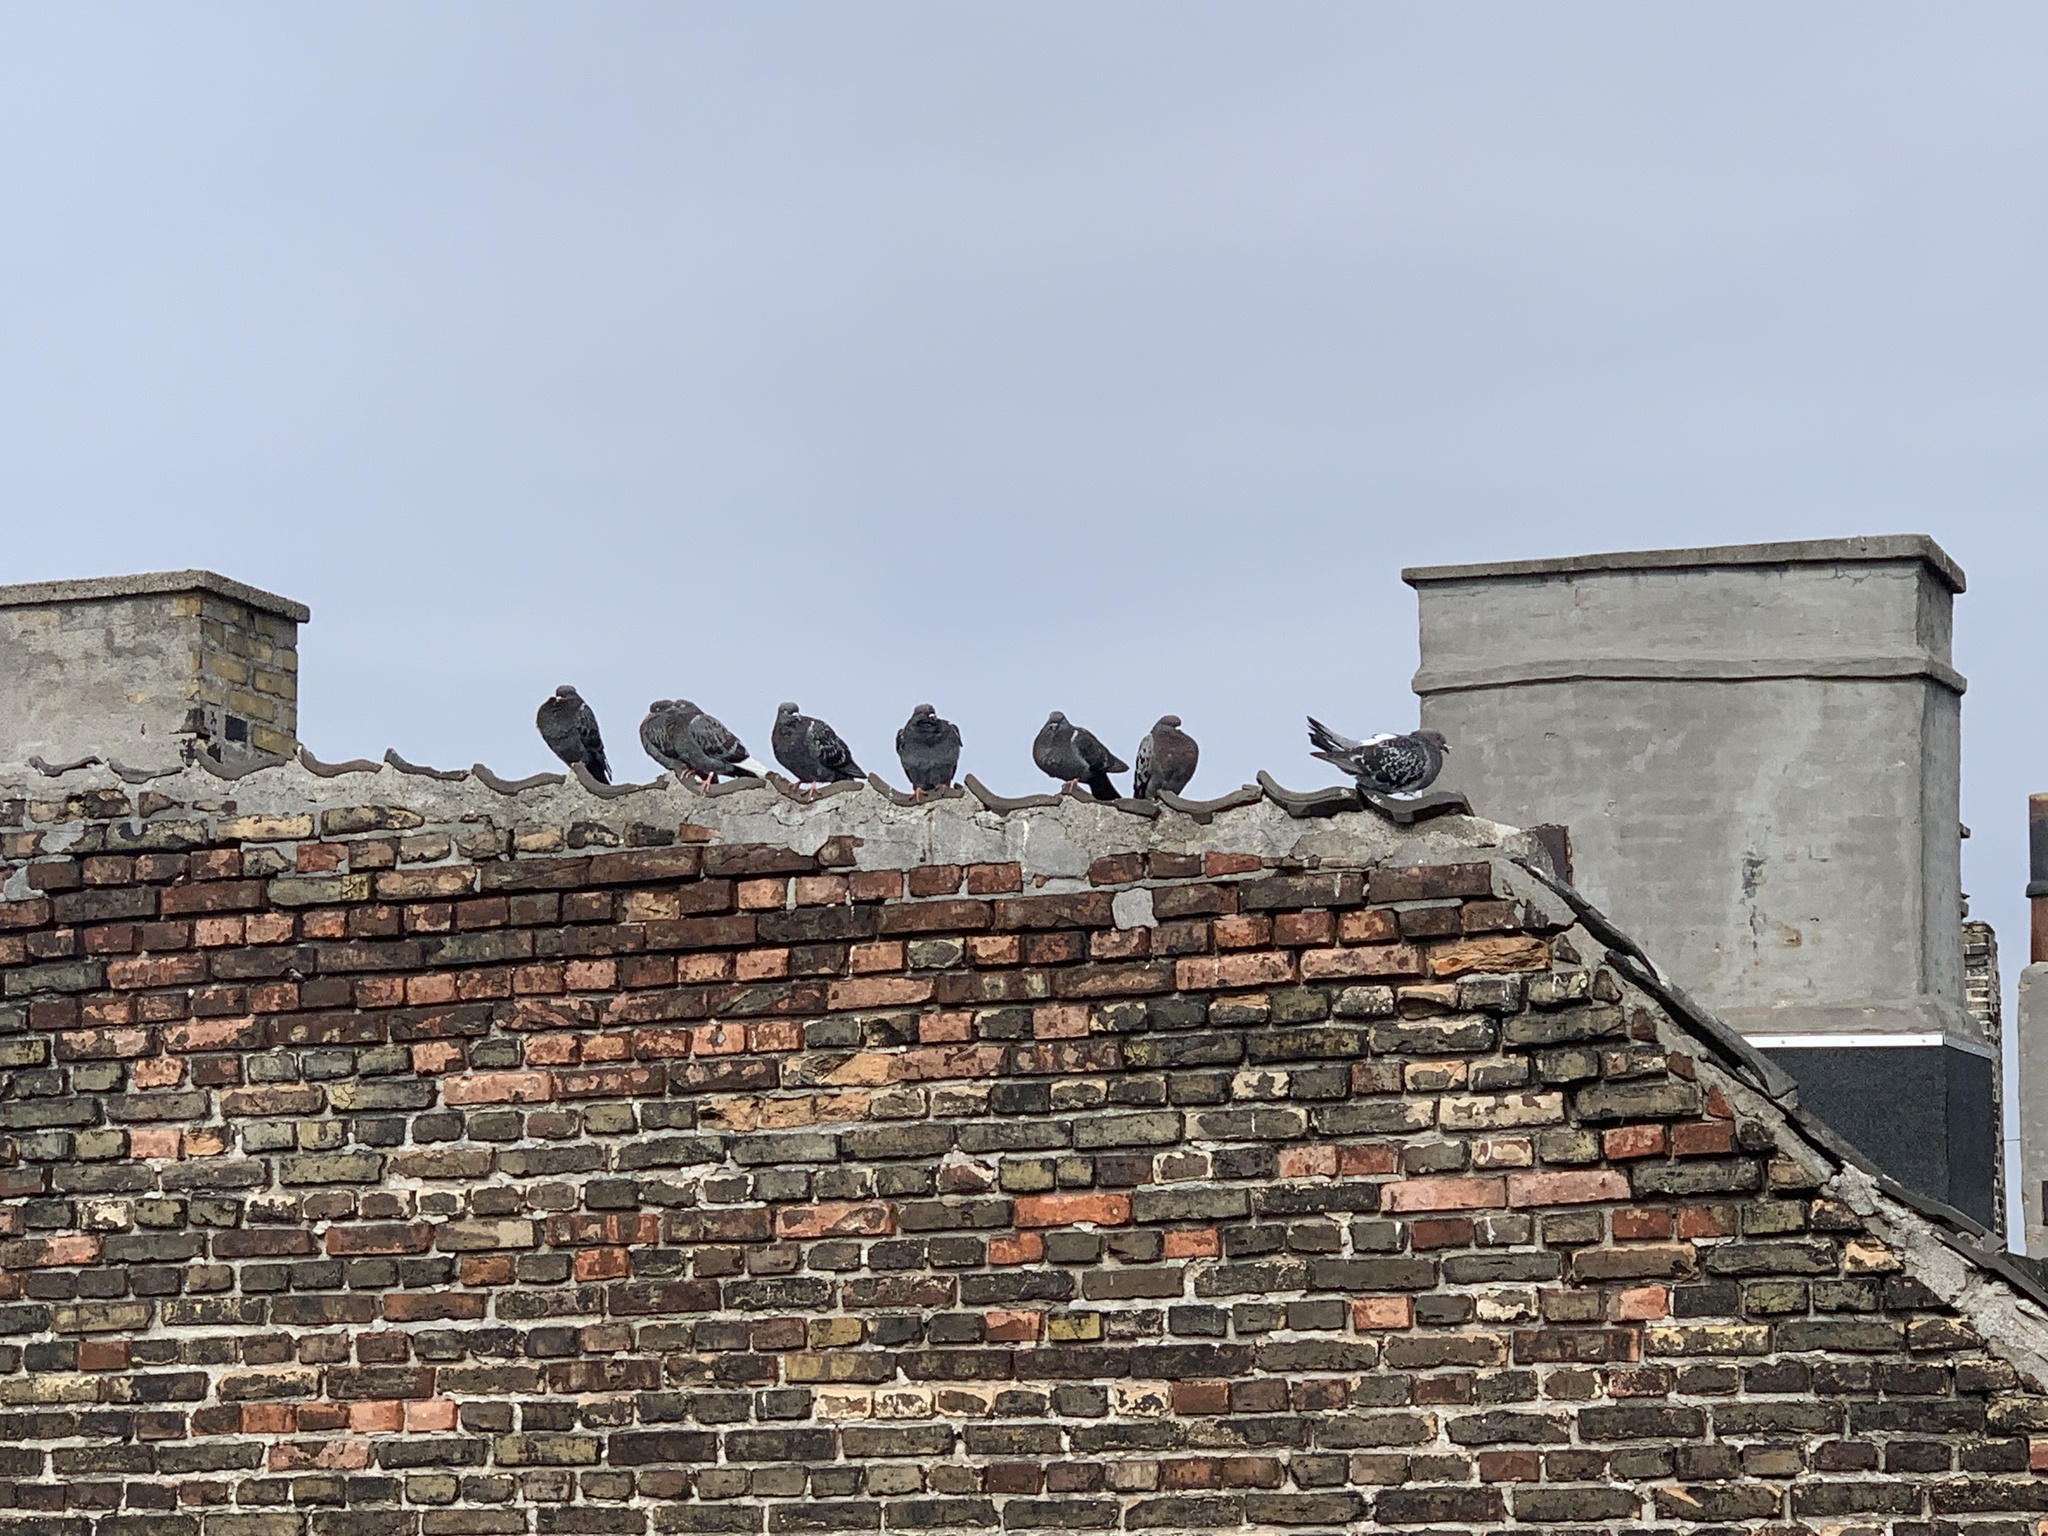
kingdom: Animalia
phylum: Chordata
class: Aves
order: Columbiformes
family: Columbidae
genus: Columba
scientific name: Columba livia
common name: Rock pigeon
